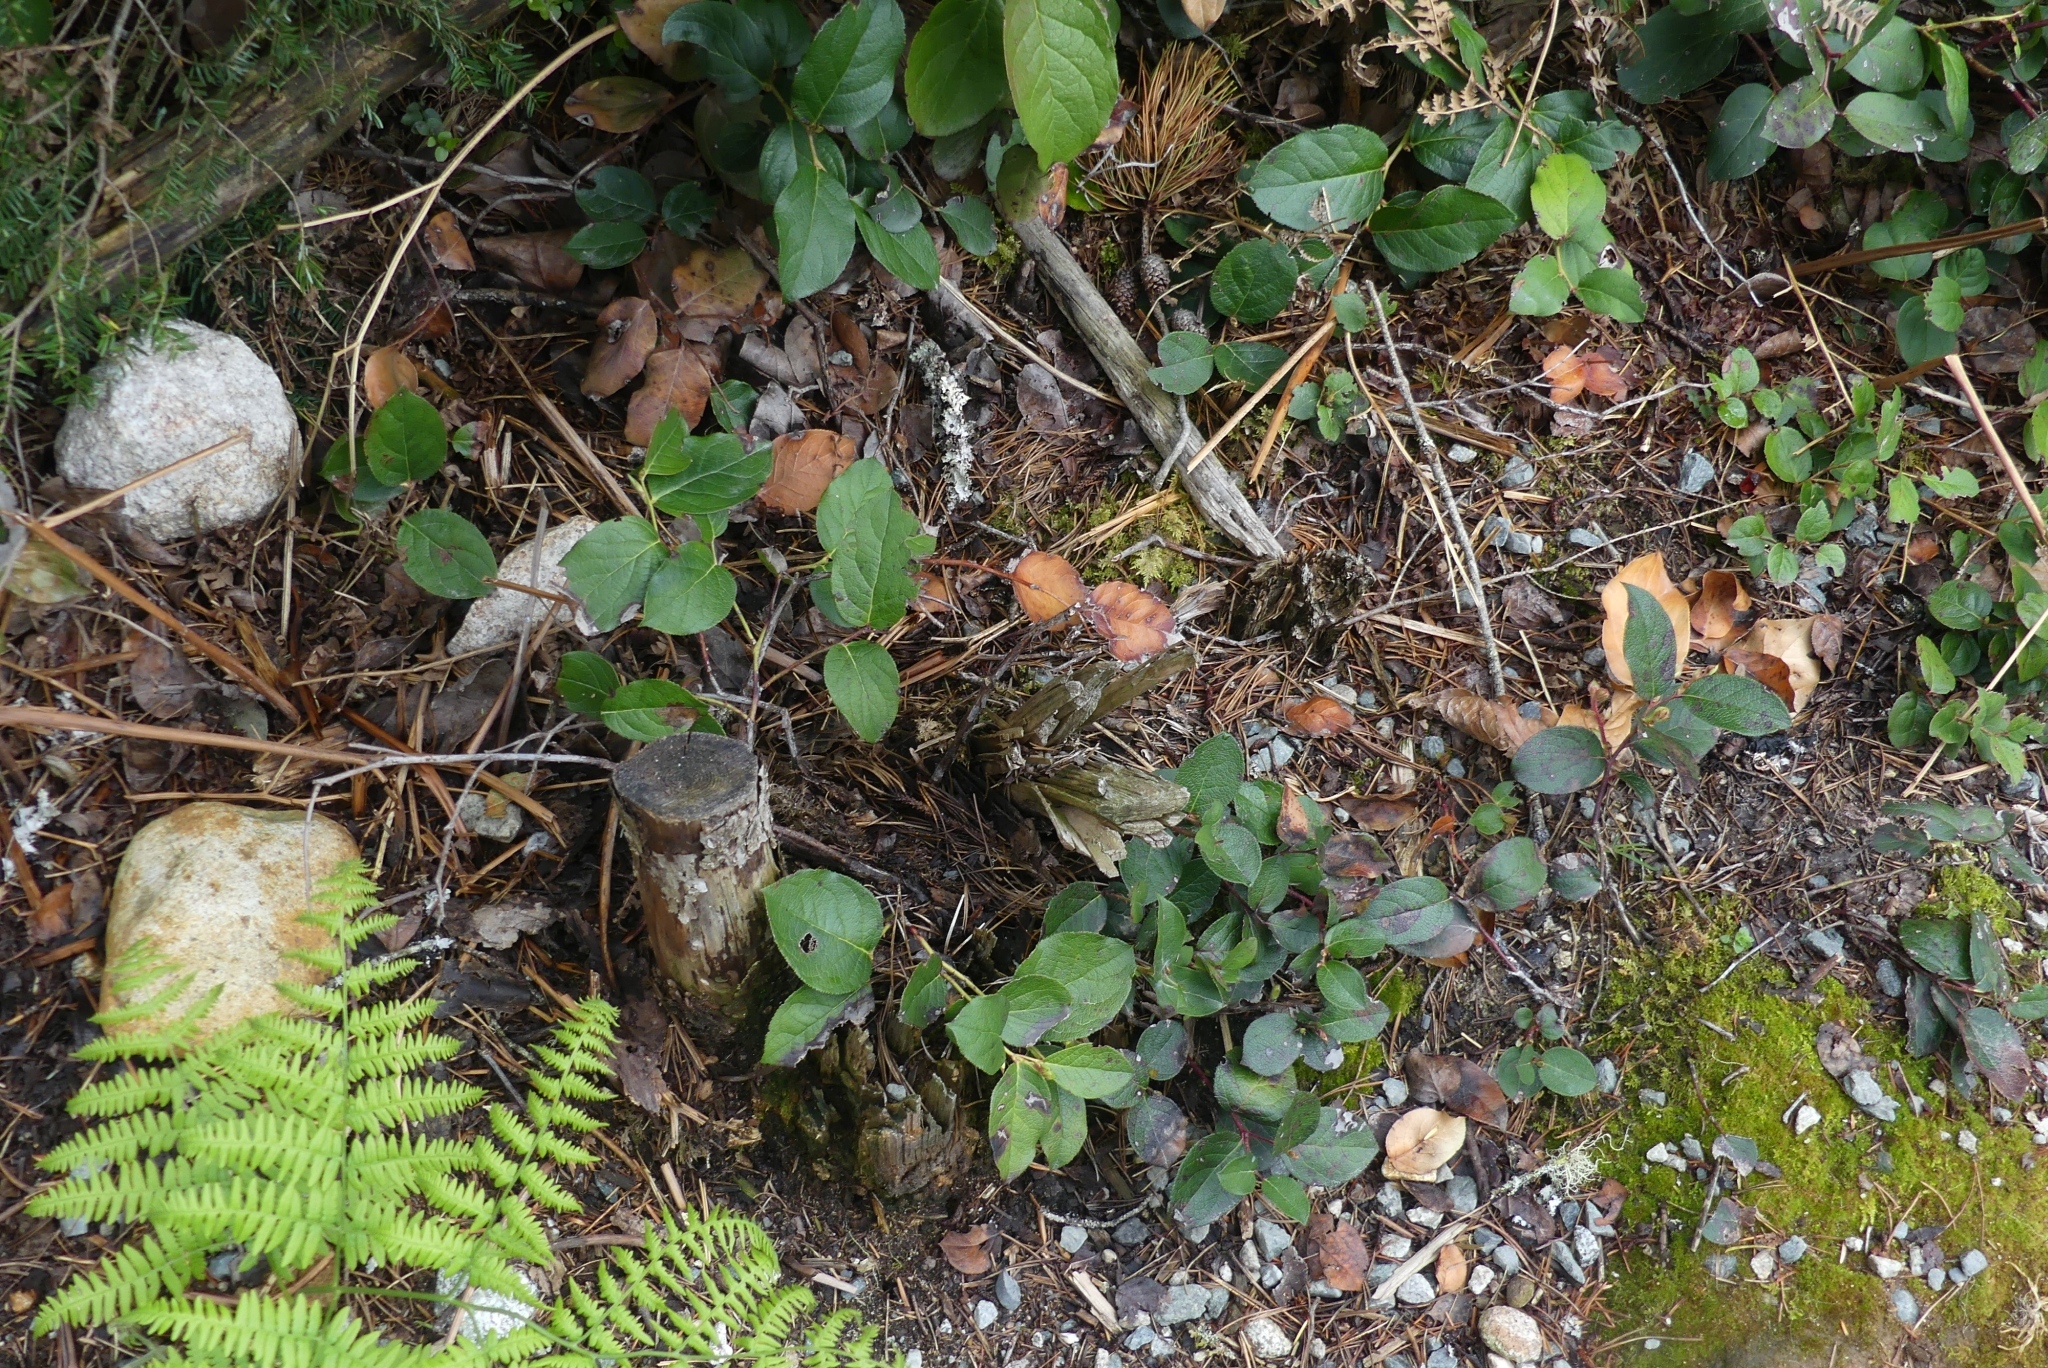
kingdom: Plantae
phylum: Tracheophyta
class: Magnoliopsida
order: Ericales
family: Ericaceae
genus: Gaultheria
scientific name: Gaultheria shallon
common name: Shallon
